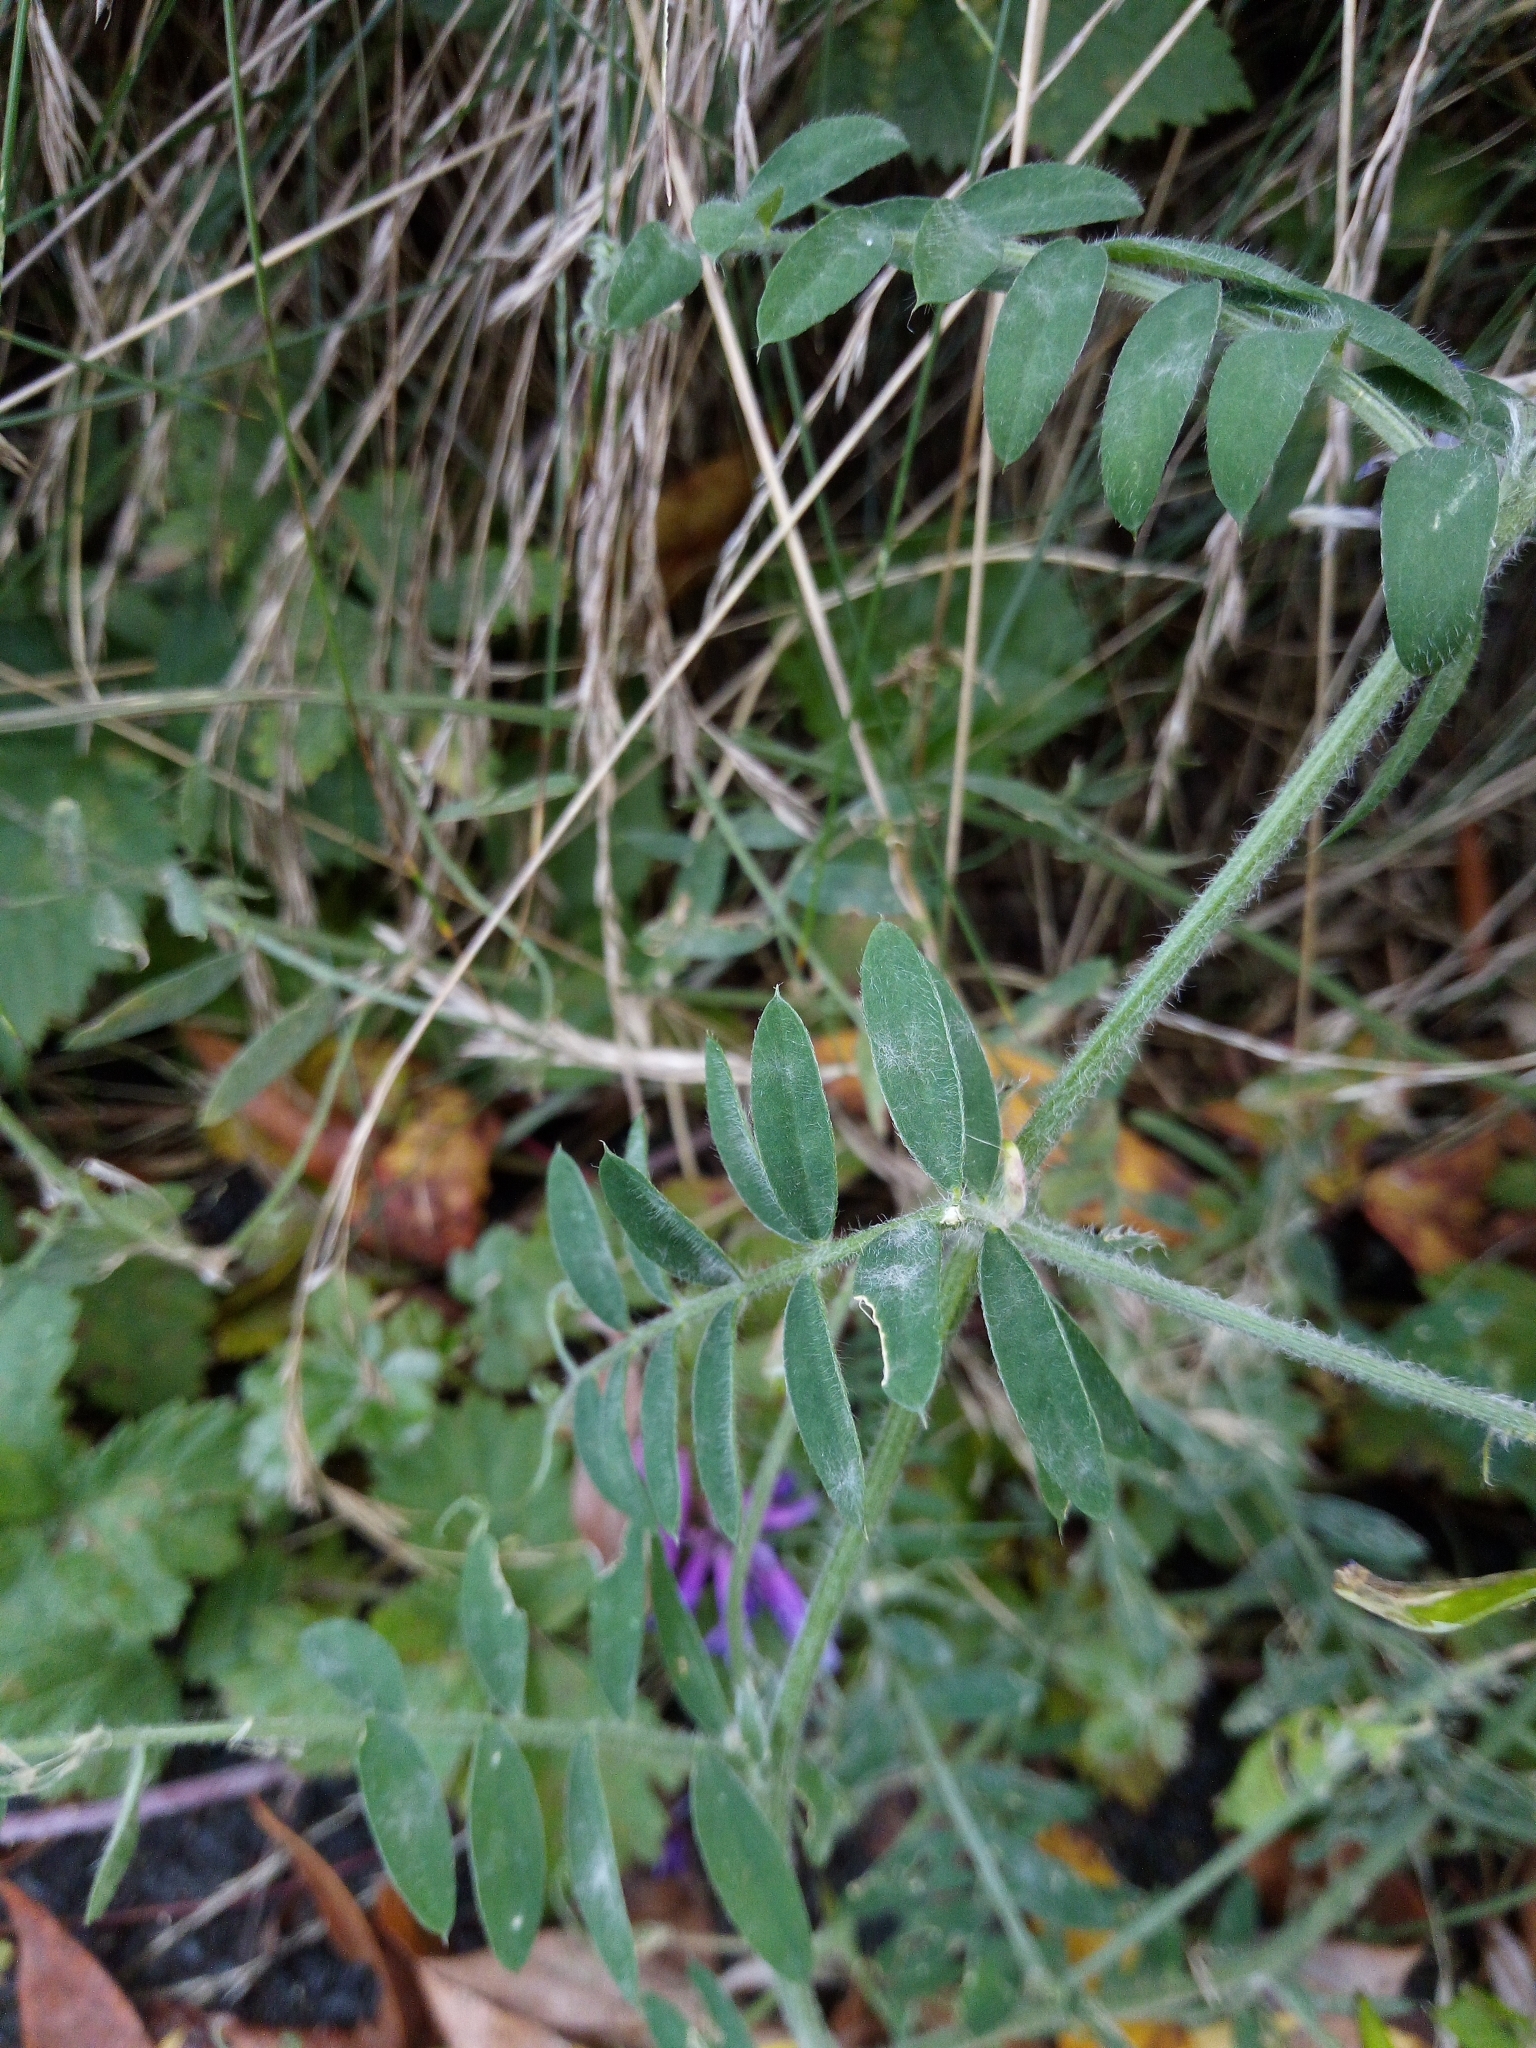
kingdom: Plantae
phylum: Tracheophyta
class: Magnoliopsida
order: Fabales
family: Fabaceae
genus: Vicia
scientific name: Vicia villosa
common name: Fodder vetch
